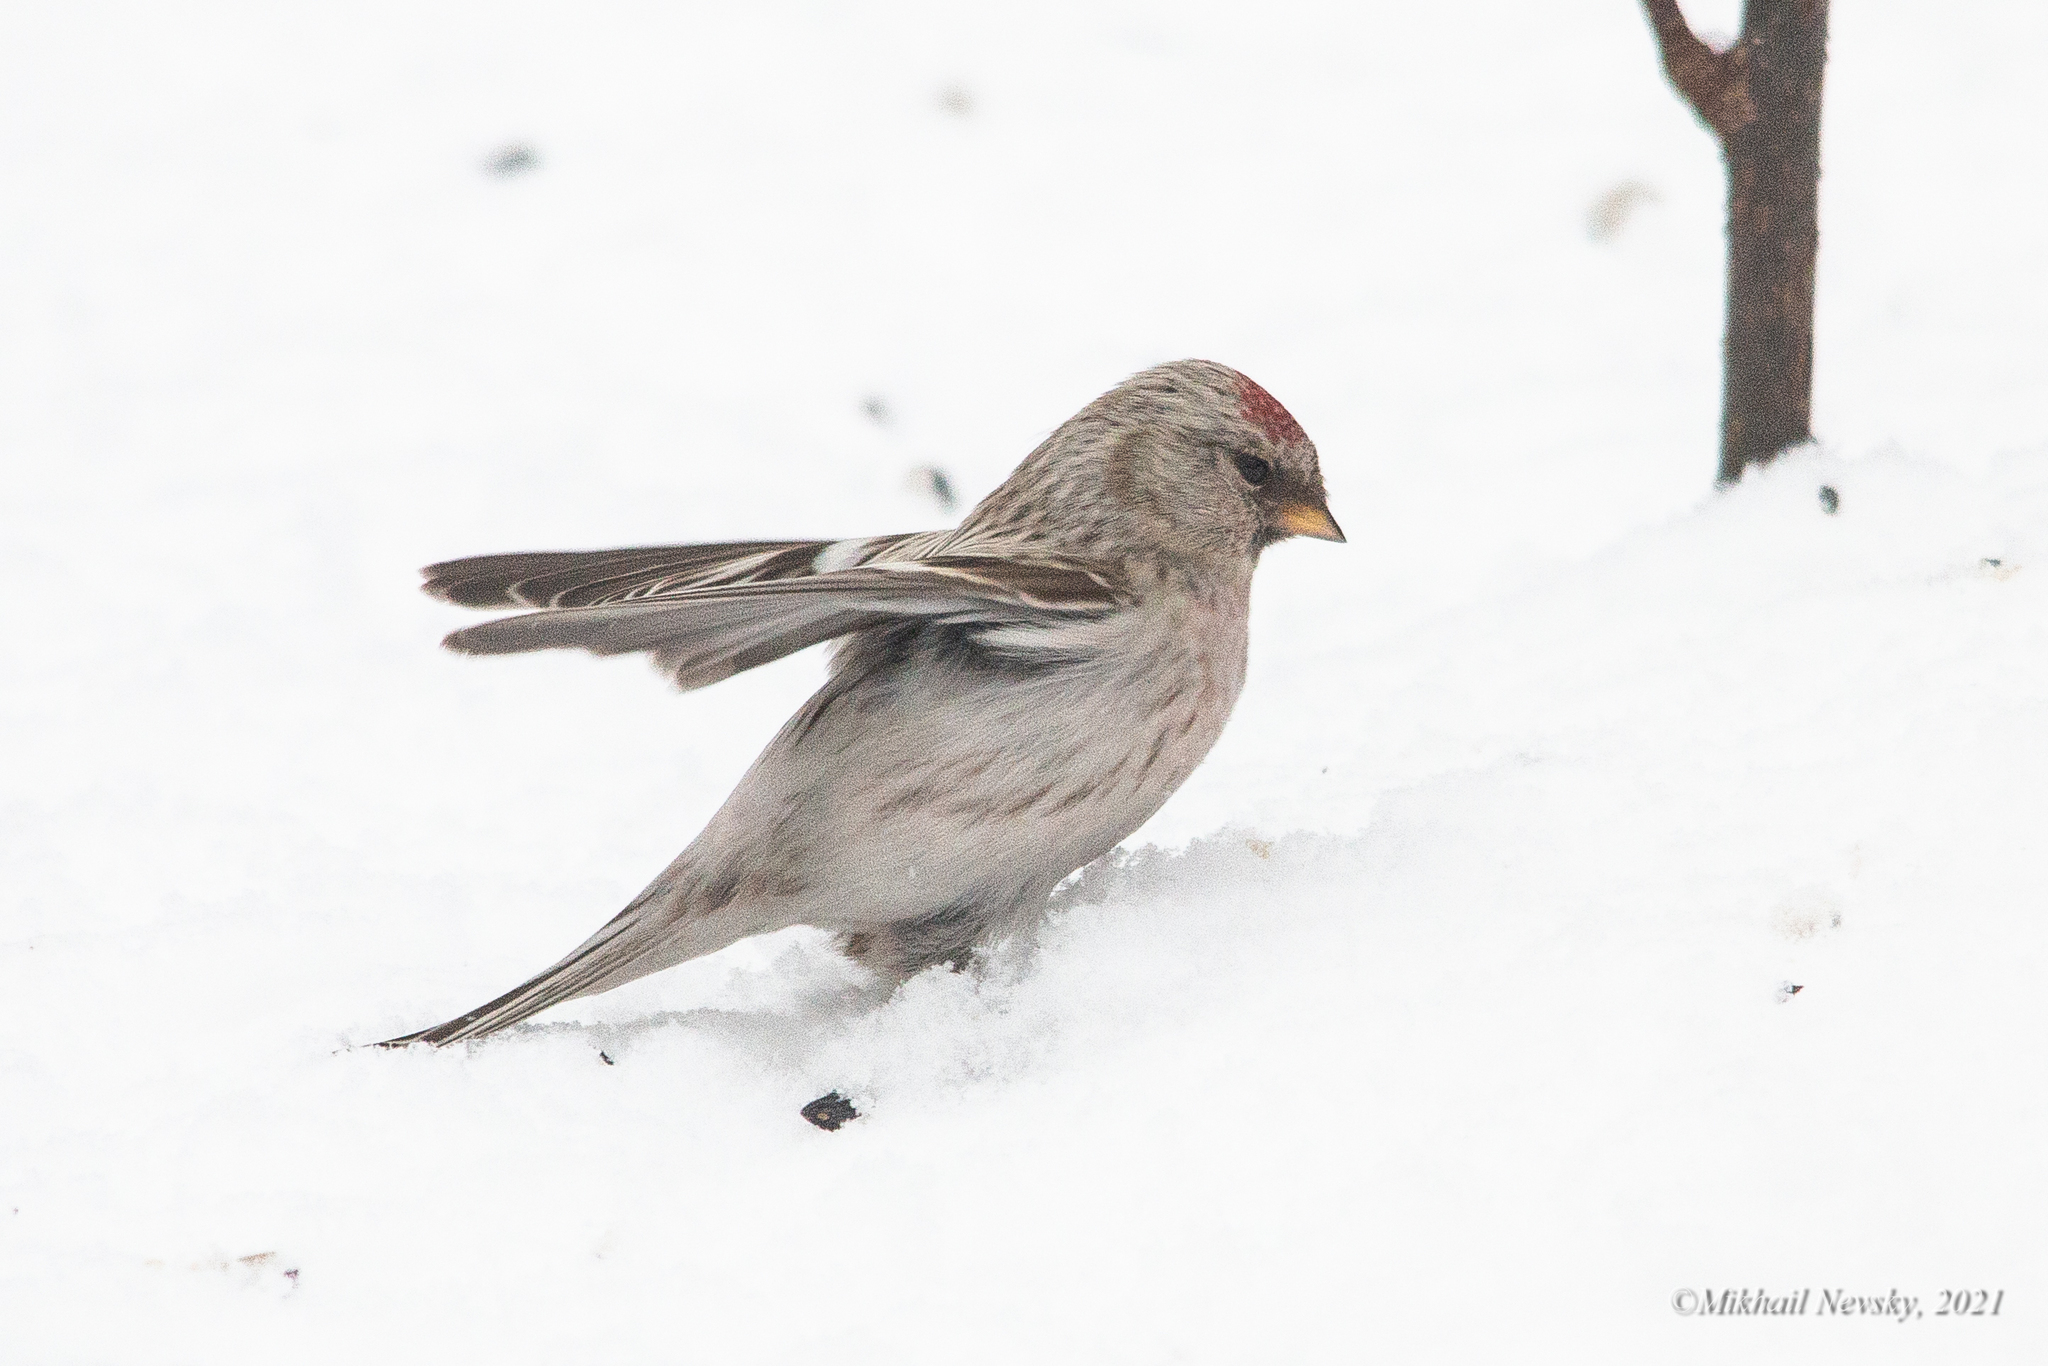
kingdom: Animalia
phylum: Chordata
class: Aves
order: Passeriformes
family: Fringillidae
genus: Acanthis
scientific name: Acanthis hornemanni
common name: Arctic redpoll
